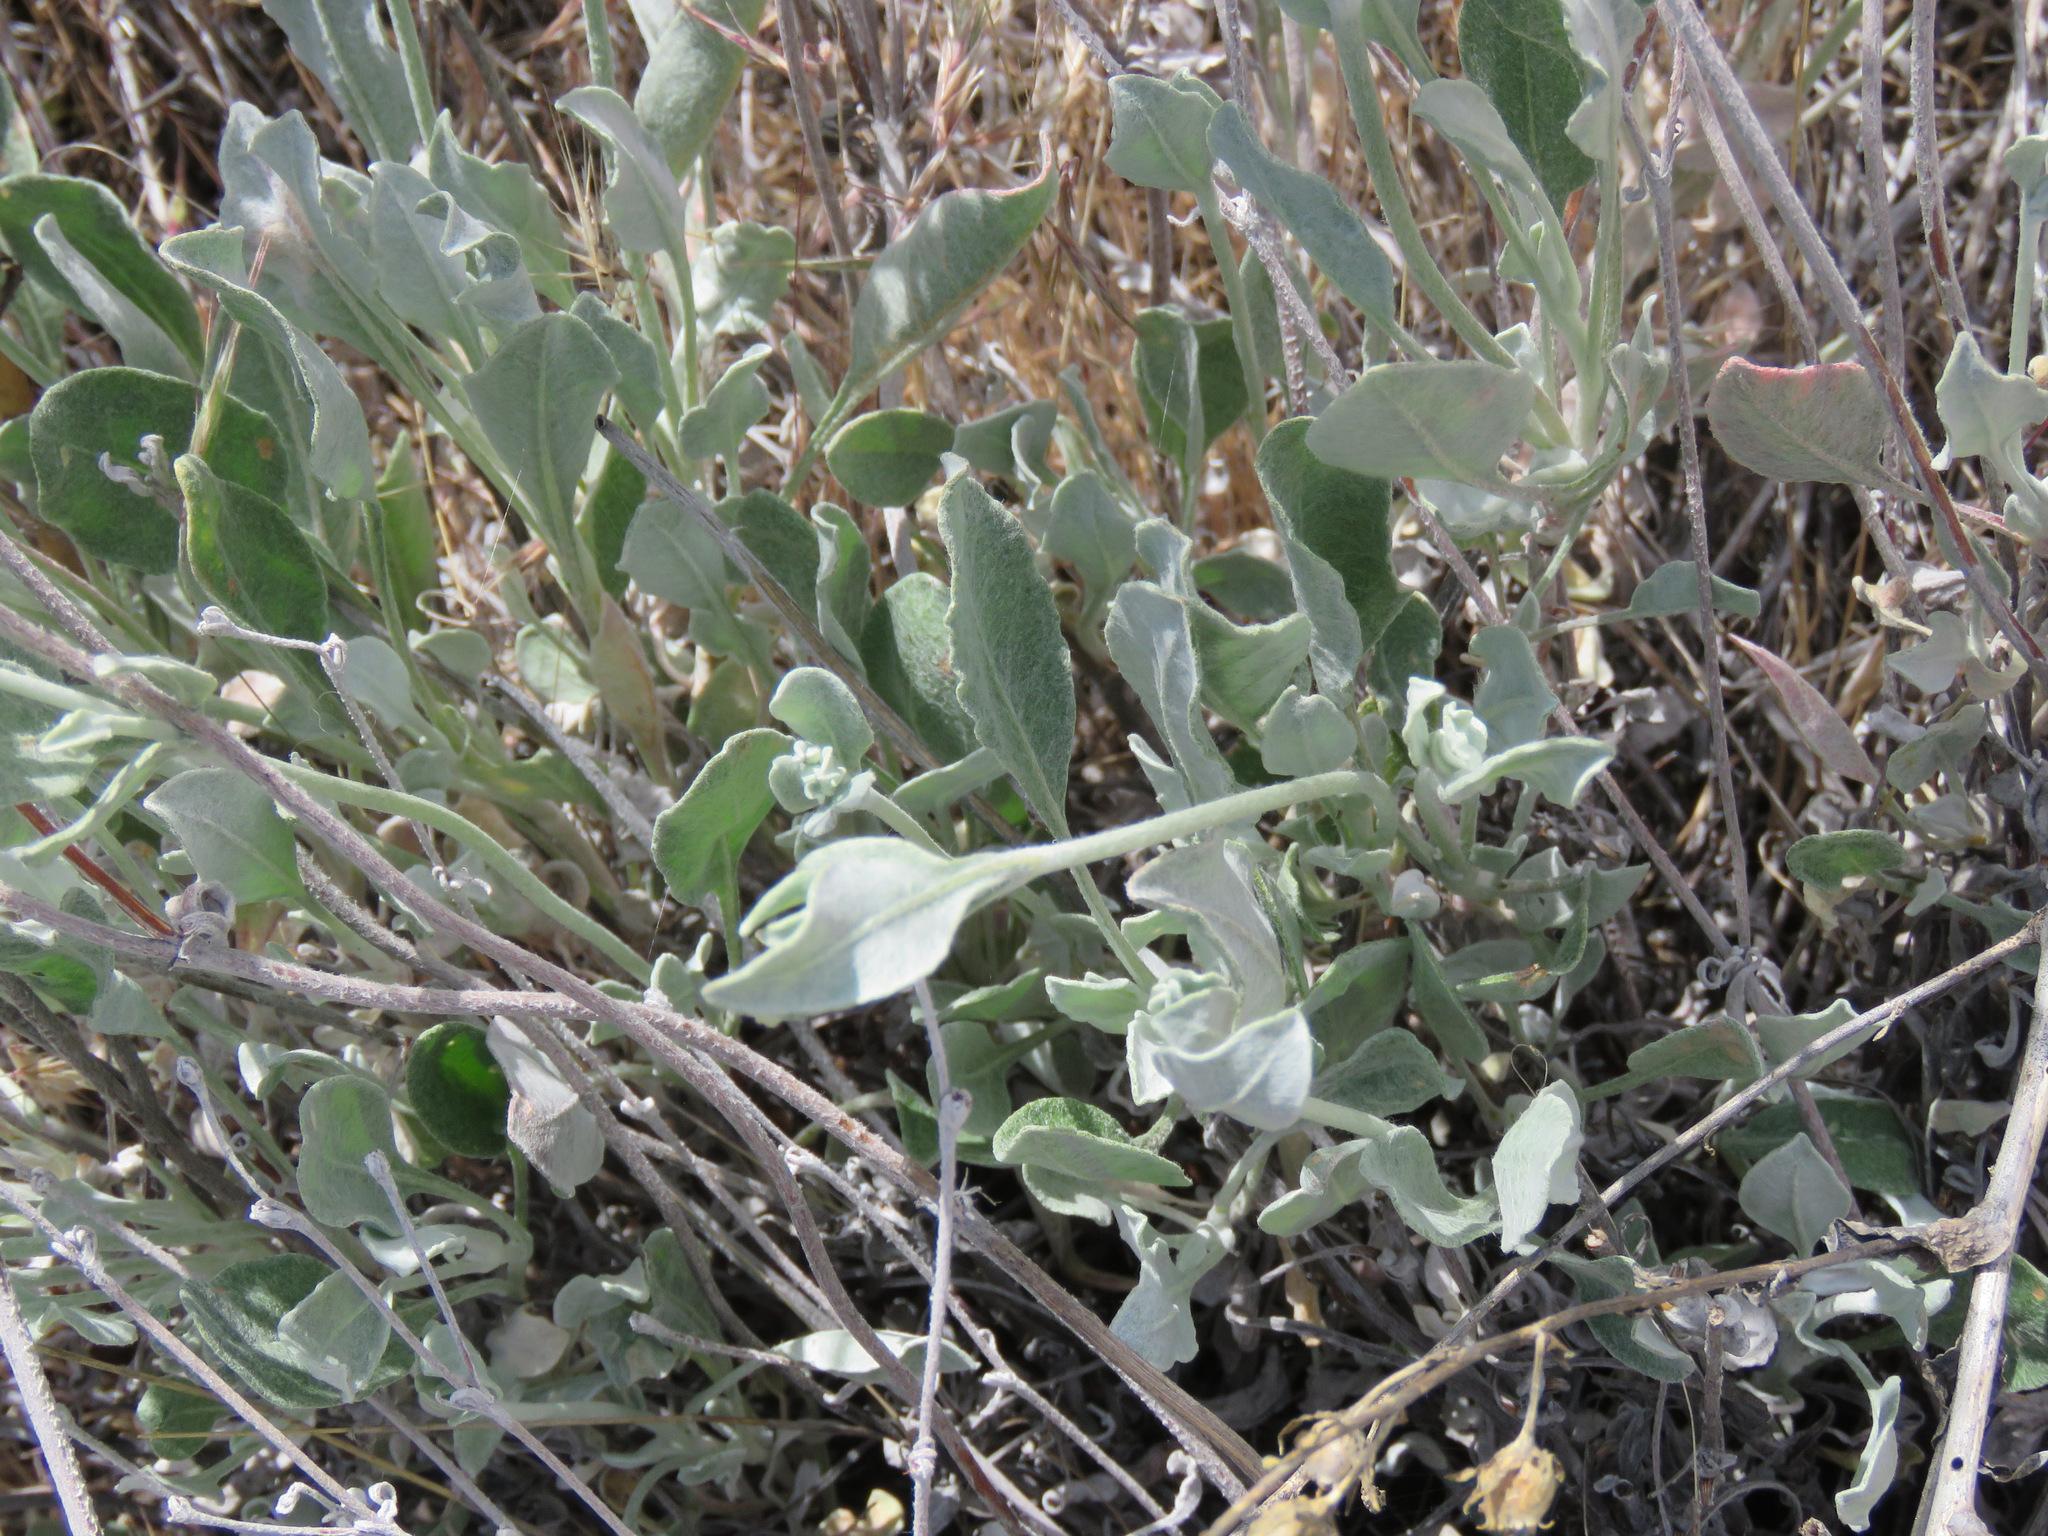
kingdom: Plantae
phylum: Tracheophyta
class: Magnoliopsida
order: Caryophyllales
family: Polygonaceae
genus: Eriogonum
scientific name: Eriogonum niveum
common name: Snow wild buckwheat
